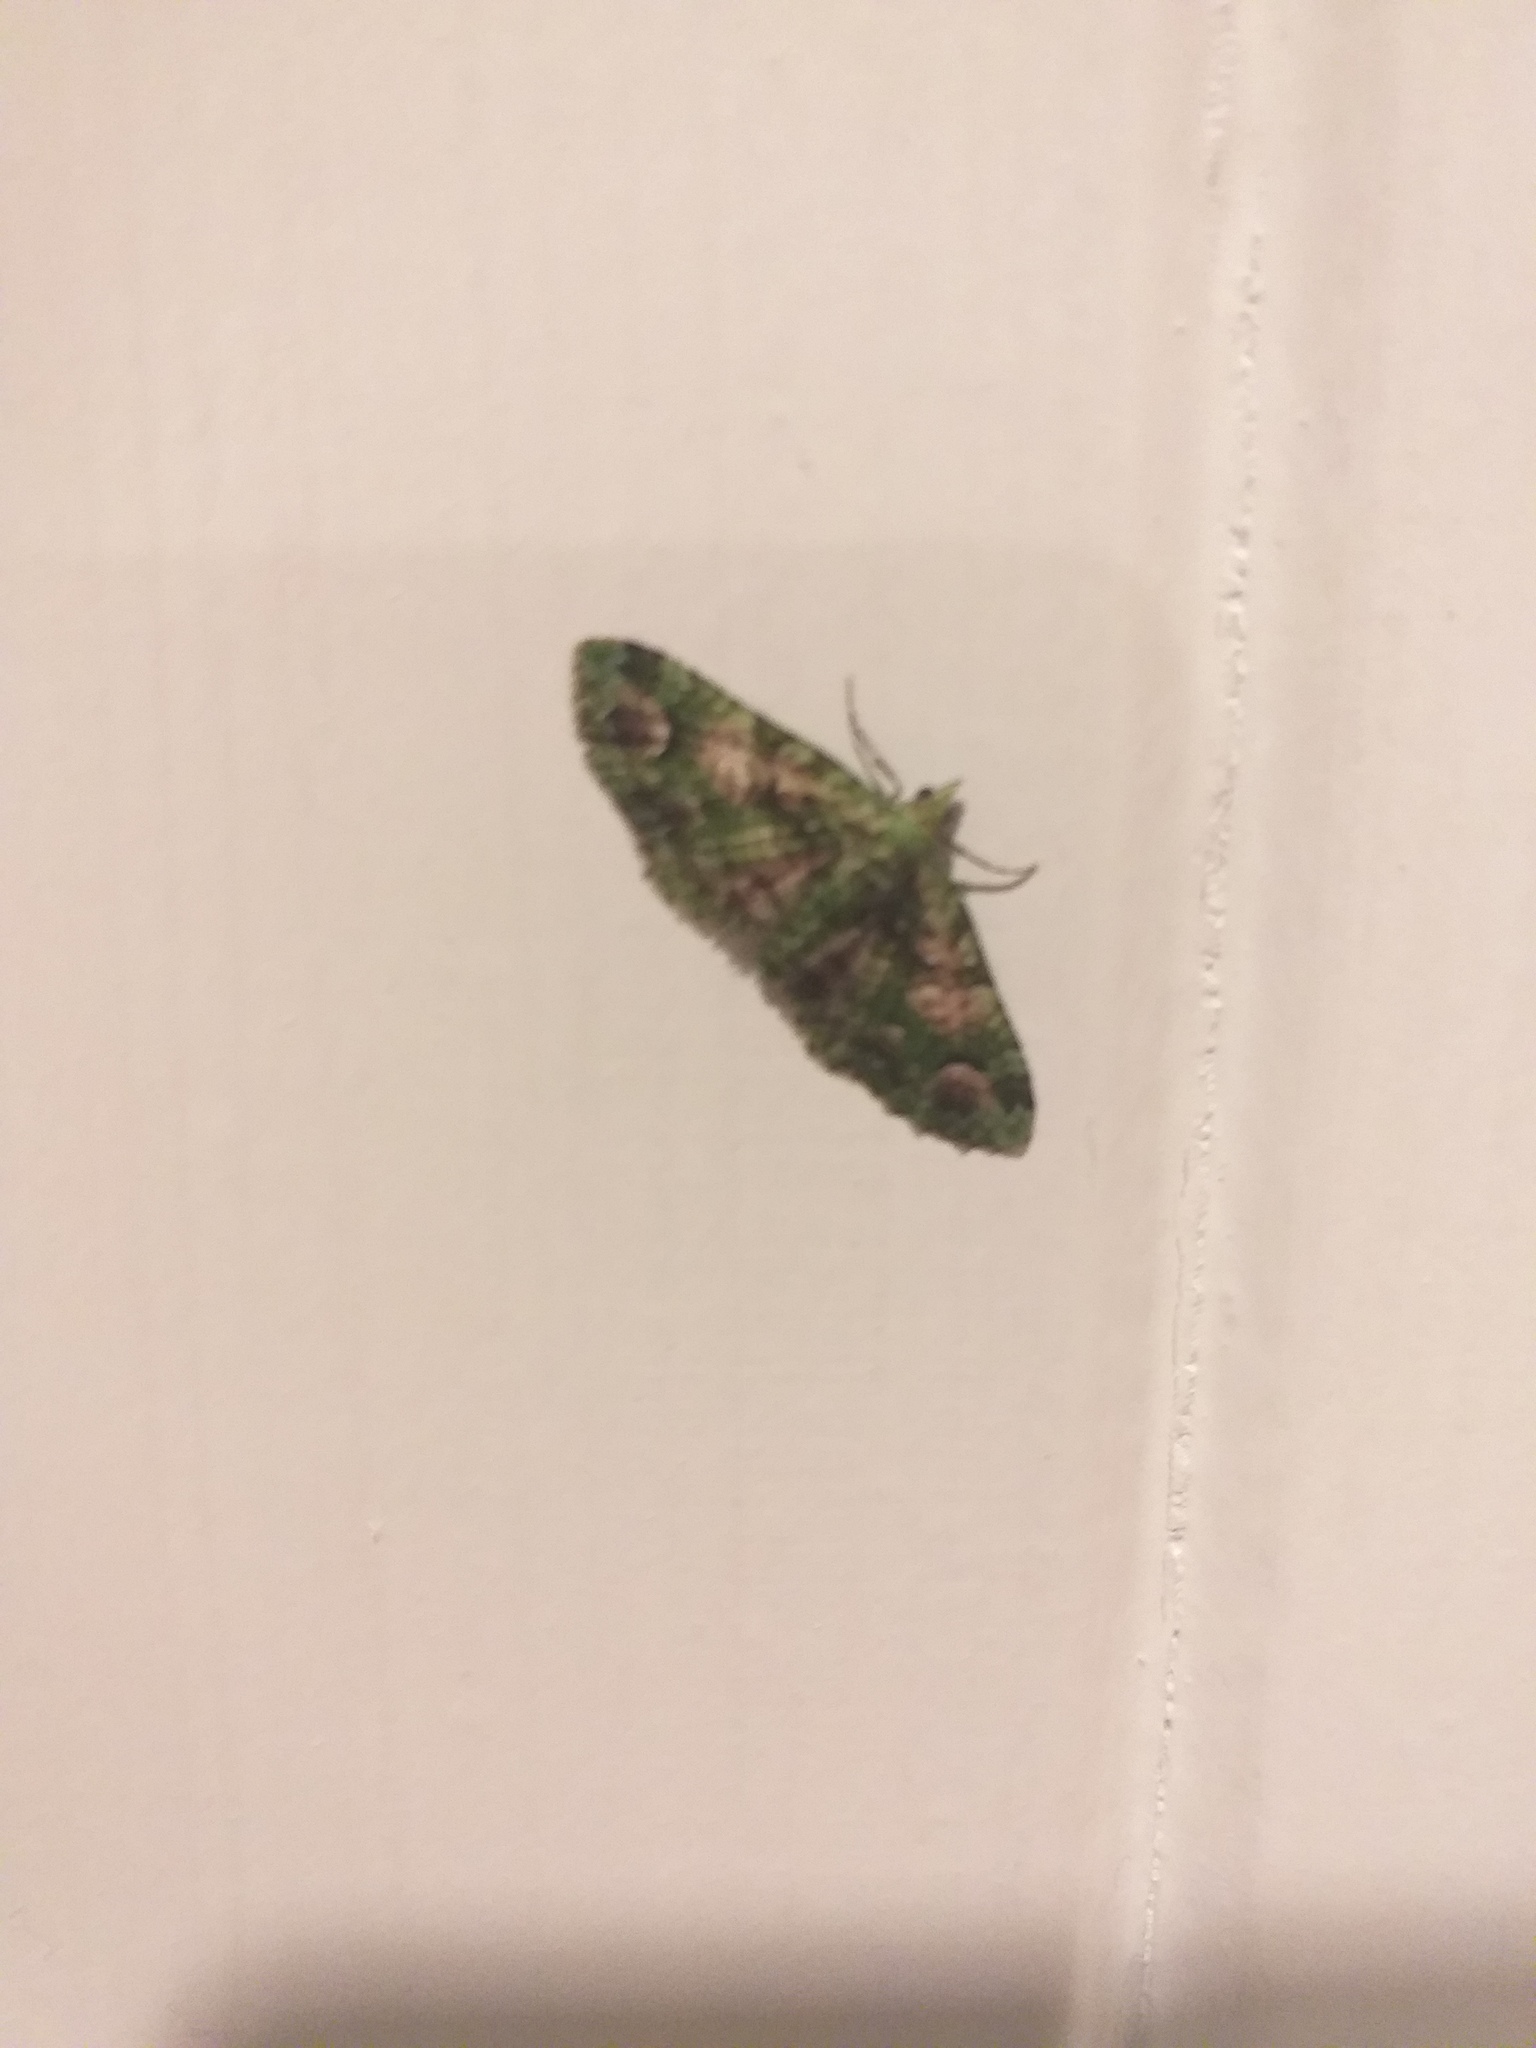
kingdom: Animalia
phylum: Arthropoda
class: Insecta
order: Lepidoptera
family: Geometridae
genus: Pasiphila
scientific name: Pasiphila semochlora
